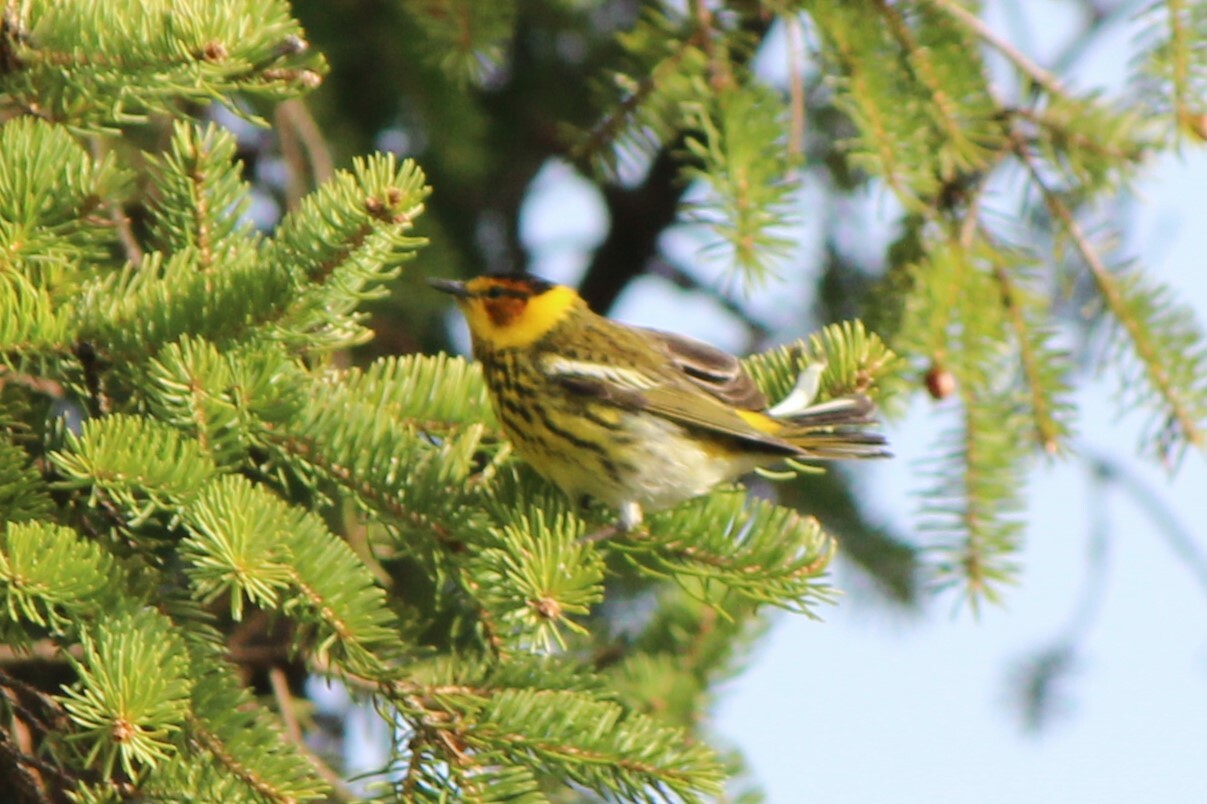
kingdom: Animalia
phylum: Chordata
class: Aves
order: Passeriformes
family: Parulidae
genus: Setophaga
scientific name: Setophaga tigrina
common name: Cape may warbler
